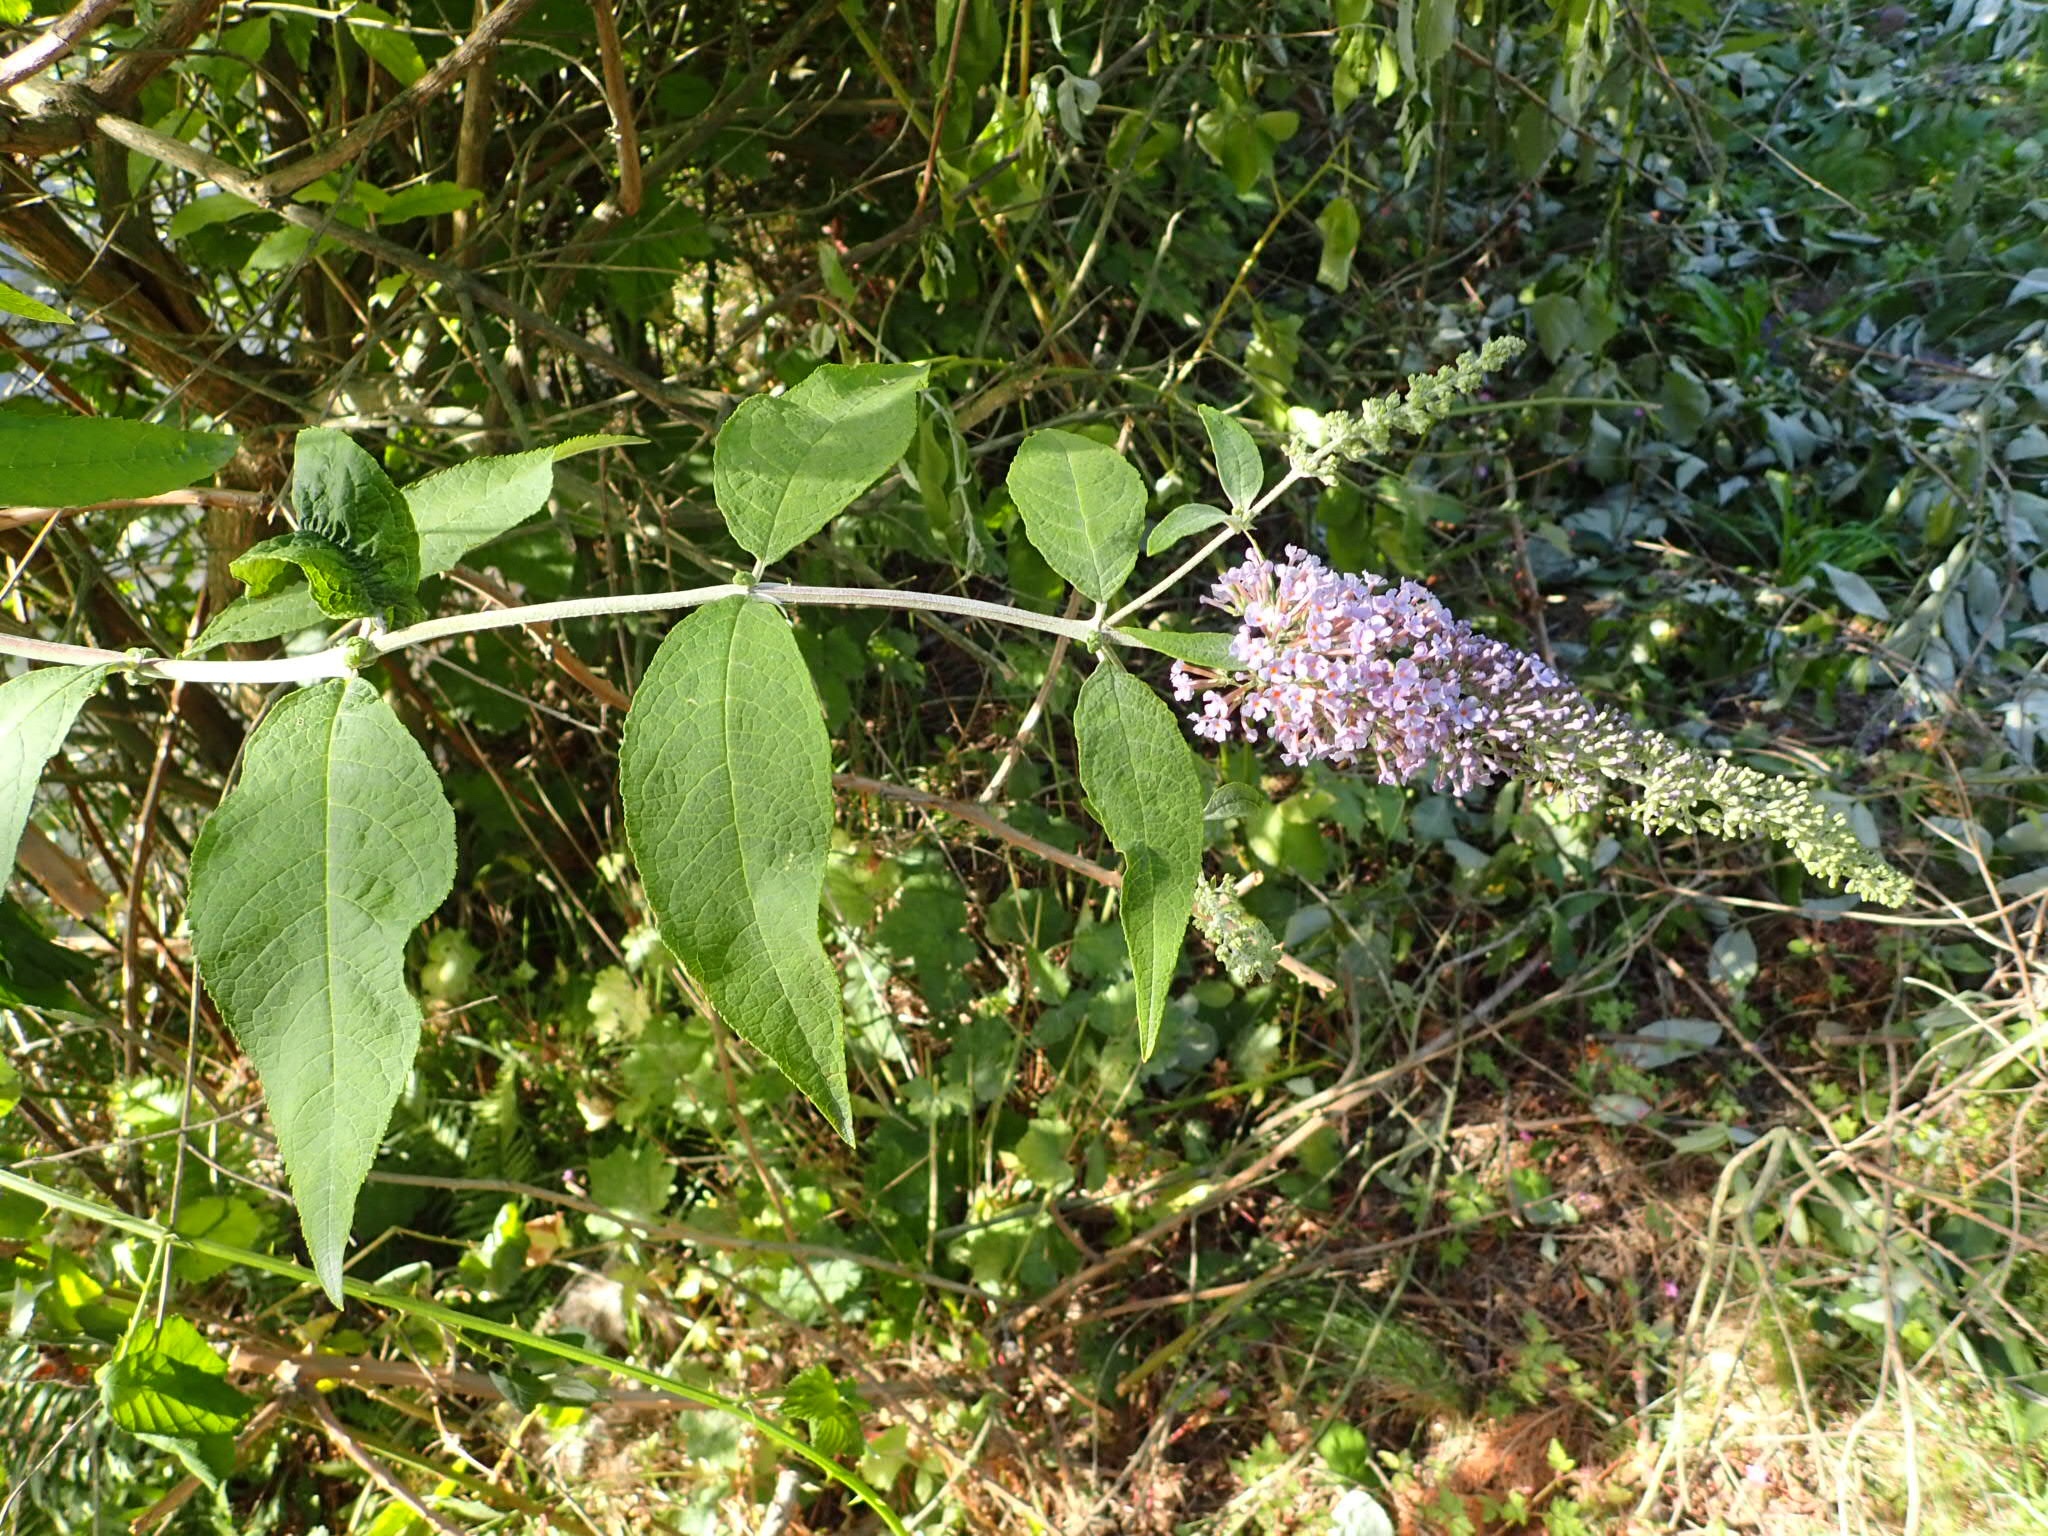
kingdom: Plantae
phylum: Tracheophyta
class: Magnoliopsida
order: Lamiales
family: Scrophulariaceae
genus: Buddleja
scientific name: Buddleja davidii
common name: Butterfly-bush
